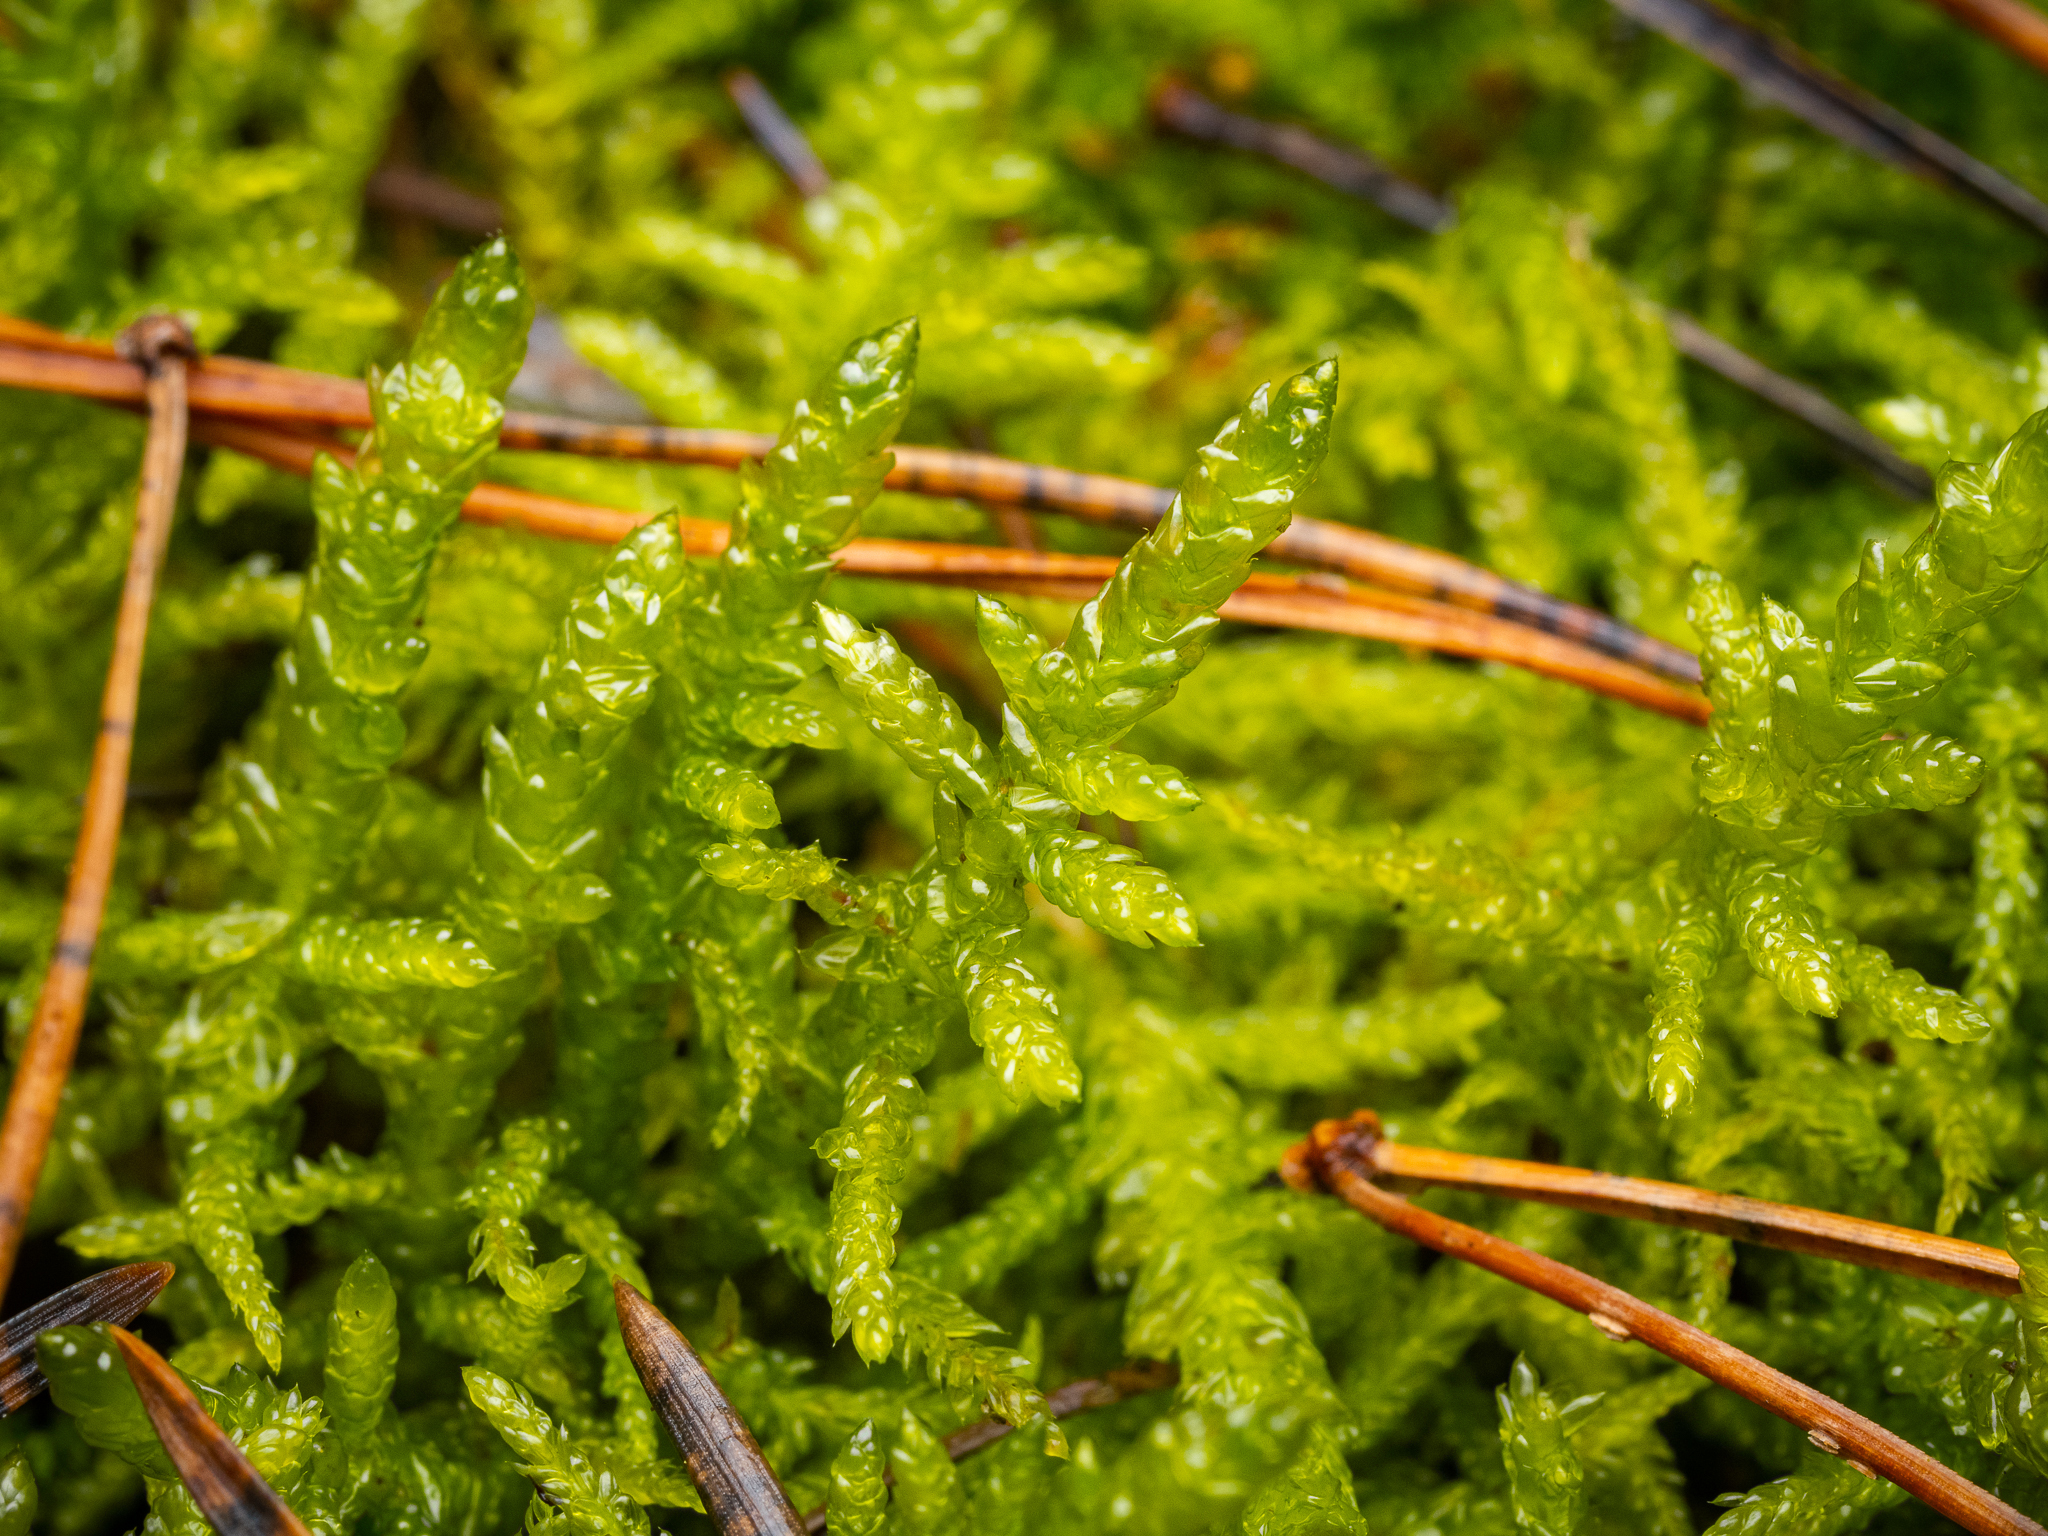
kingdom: Plantae
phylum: Bryophyta
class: Bryopsida
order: Hypnales
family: Brachytheciaceae
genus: Pseudoscleropodium
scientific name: Pseudoscleropodium purum
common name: Neat feather-moss
